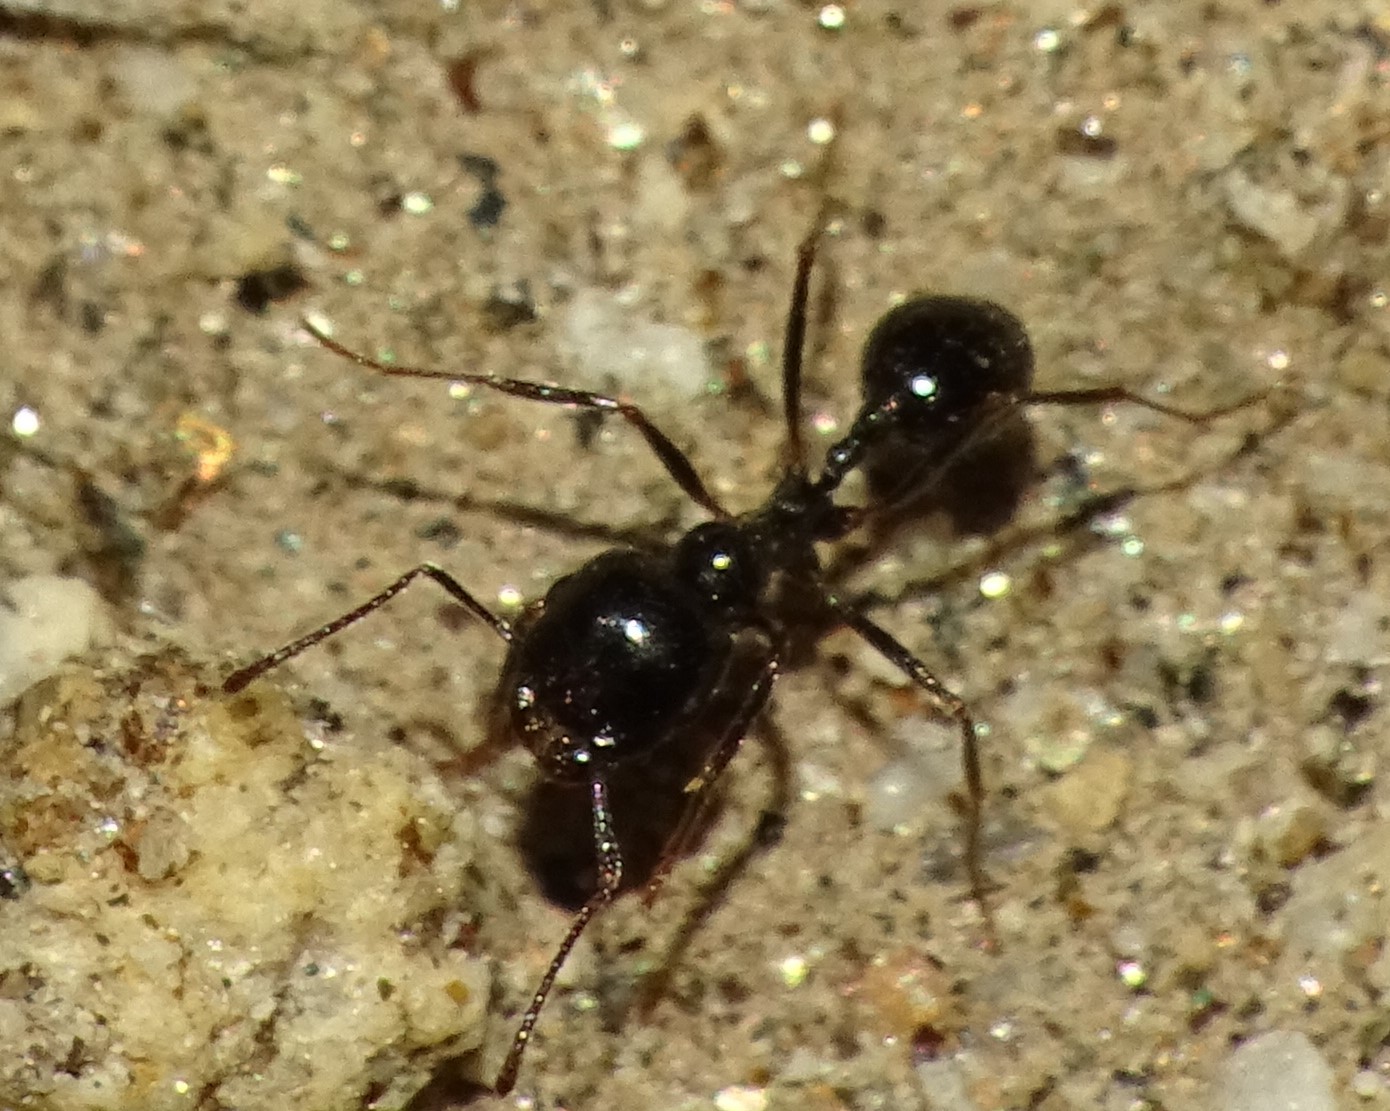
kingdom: Animalia
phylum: Arthropoda
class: Insecta
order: Hymenoptera
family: Formicidae
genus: Messor
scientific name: Messor pergandei
